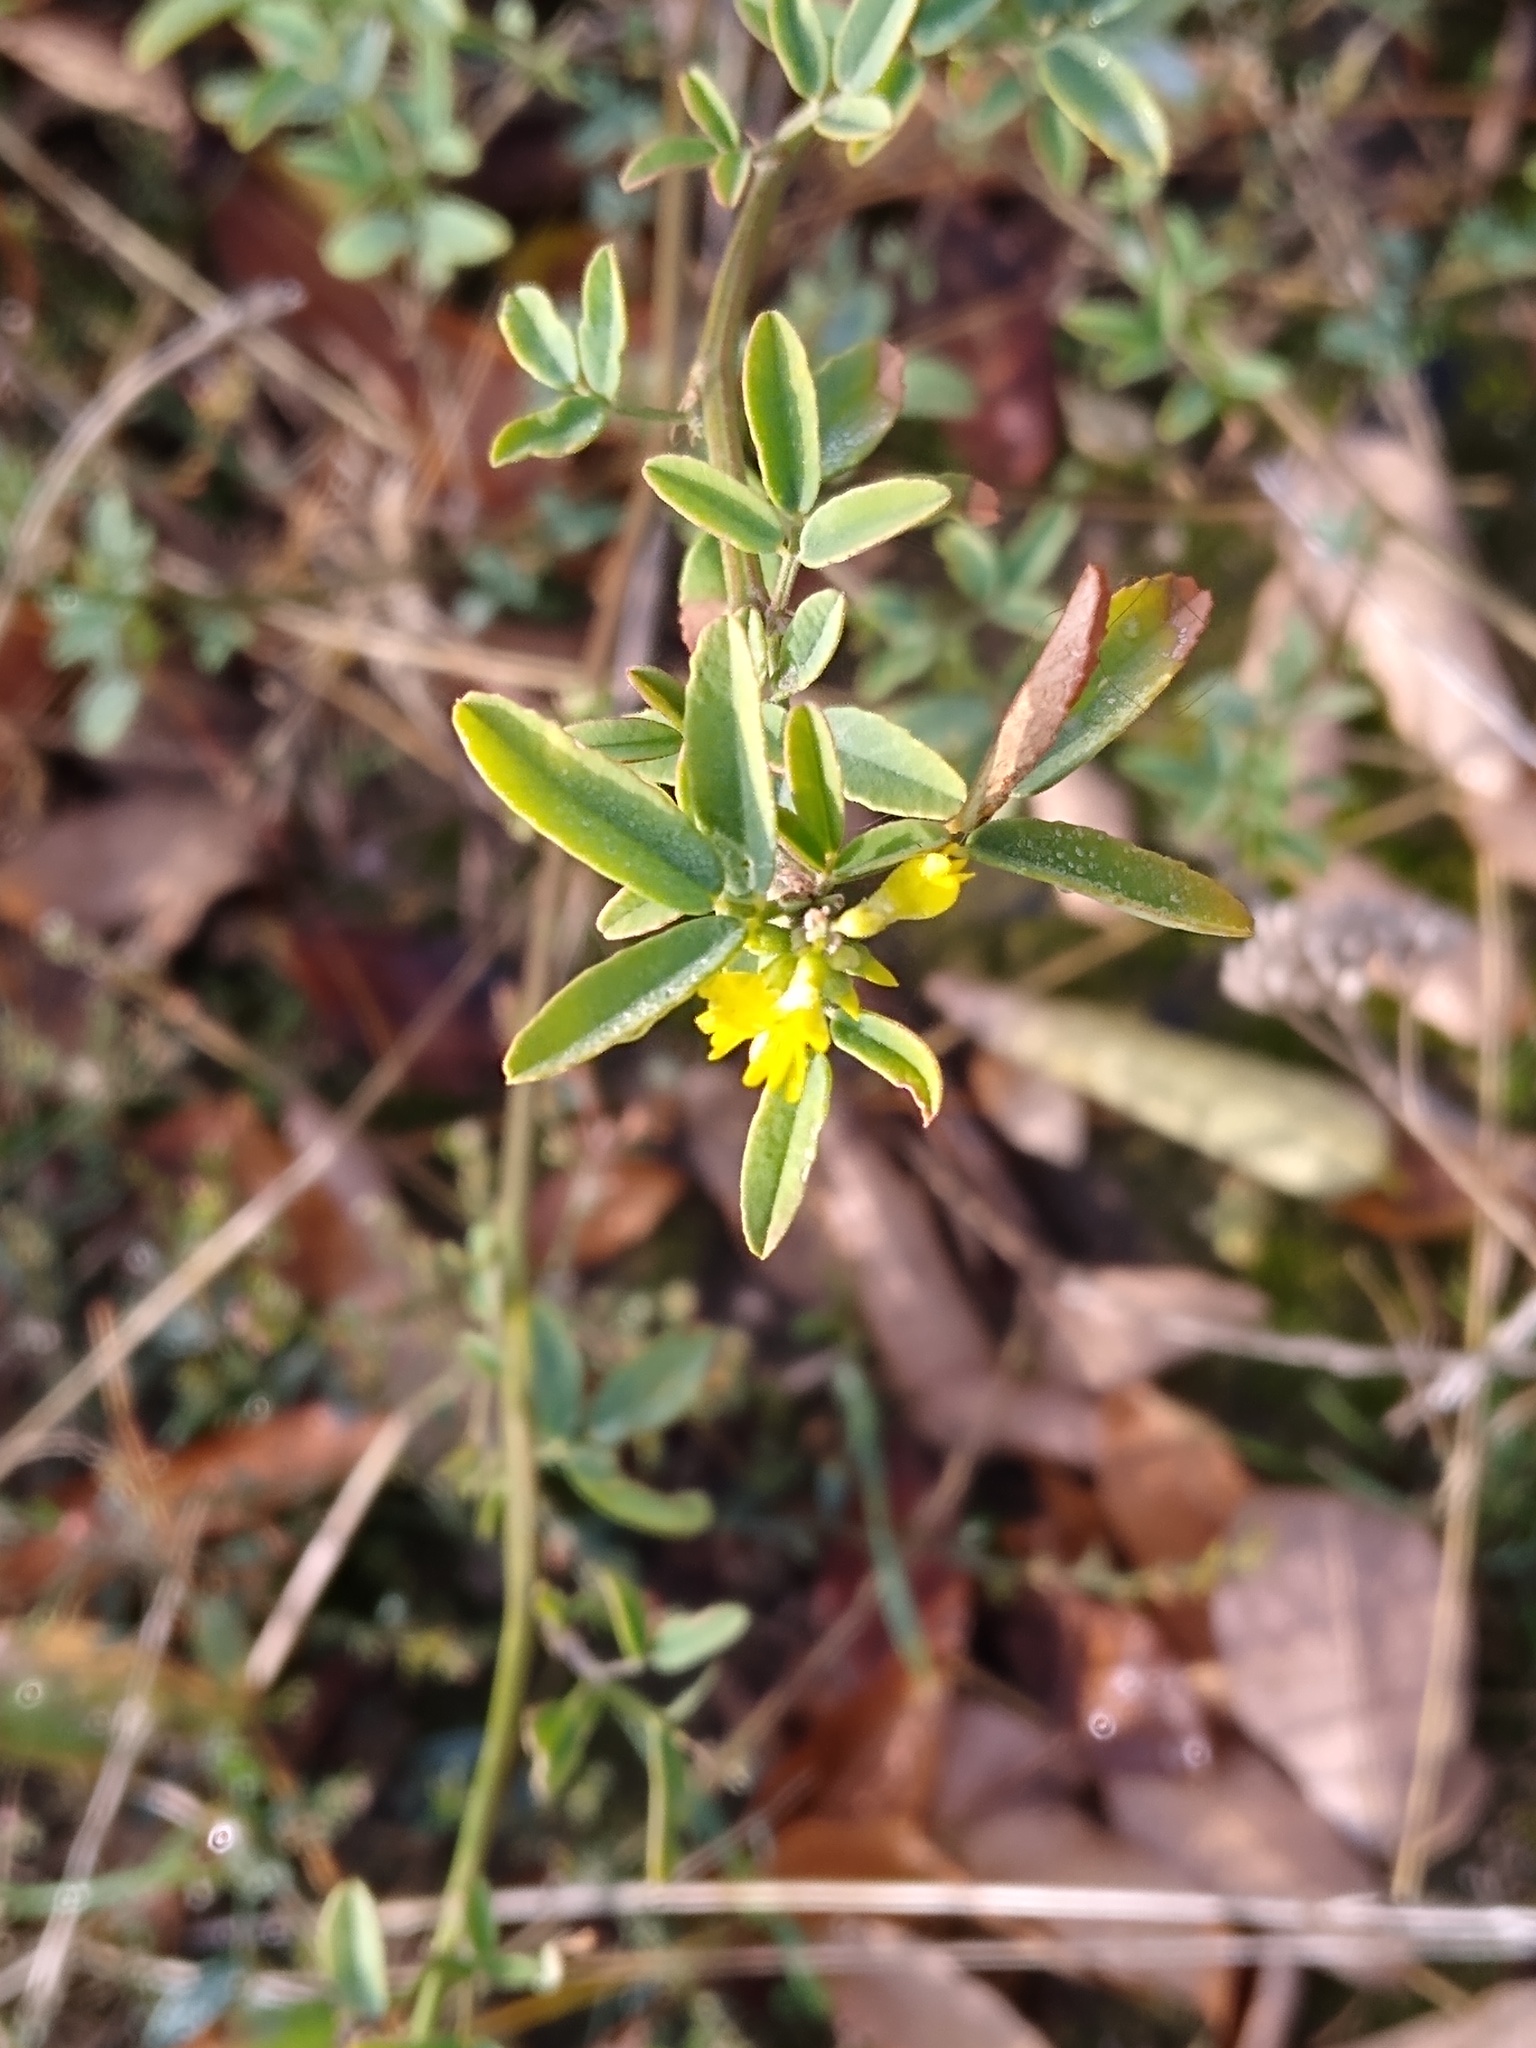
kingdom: Plantae
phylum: Tracheophyta
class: Magnoliopsida
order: Fabales
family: Fabaceae
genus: Melilotus
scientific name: Melilotus officinalis
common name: Sweetclover
